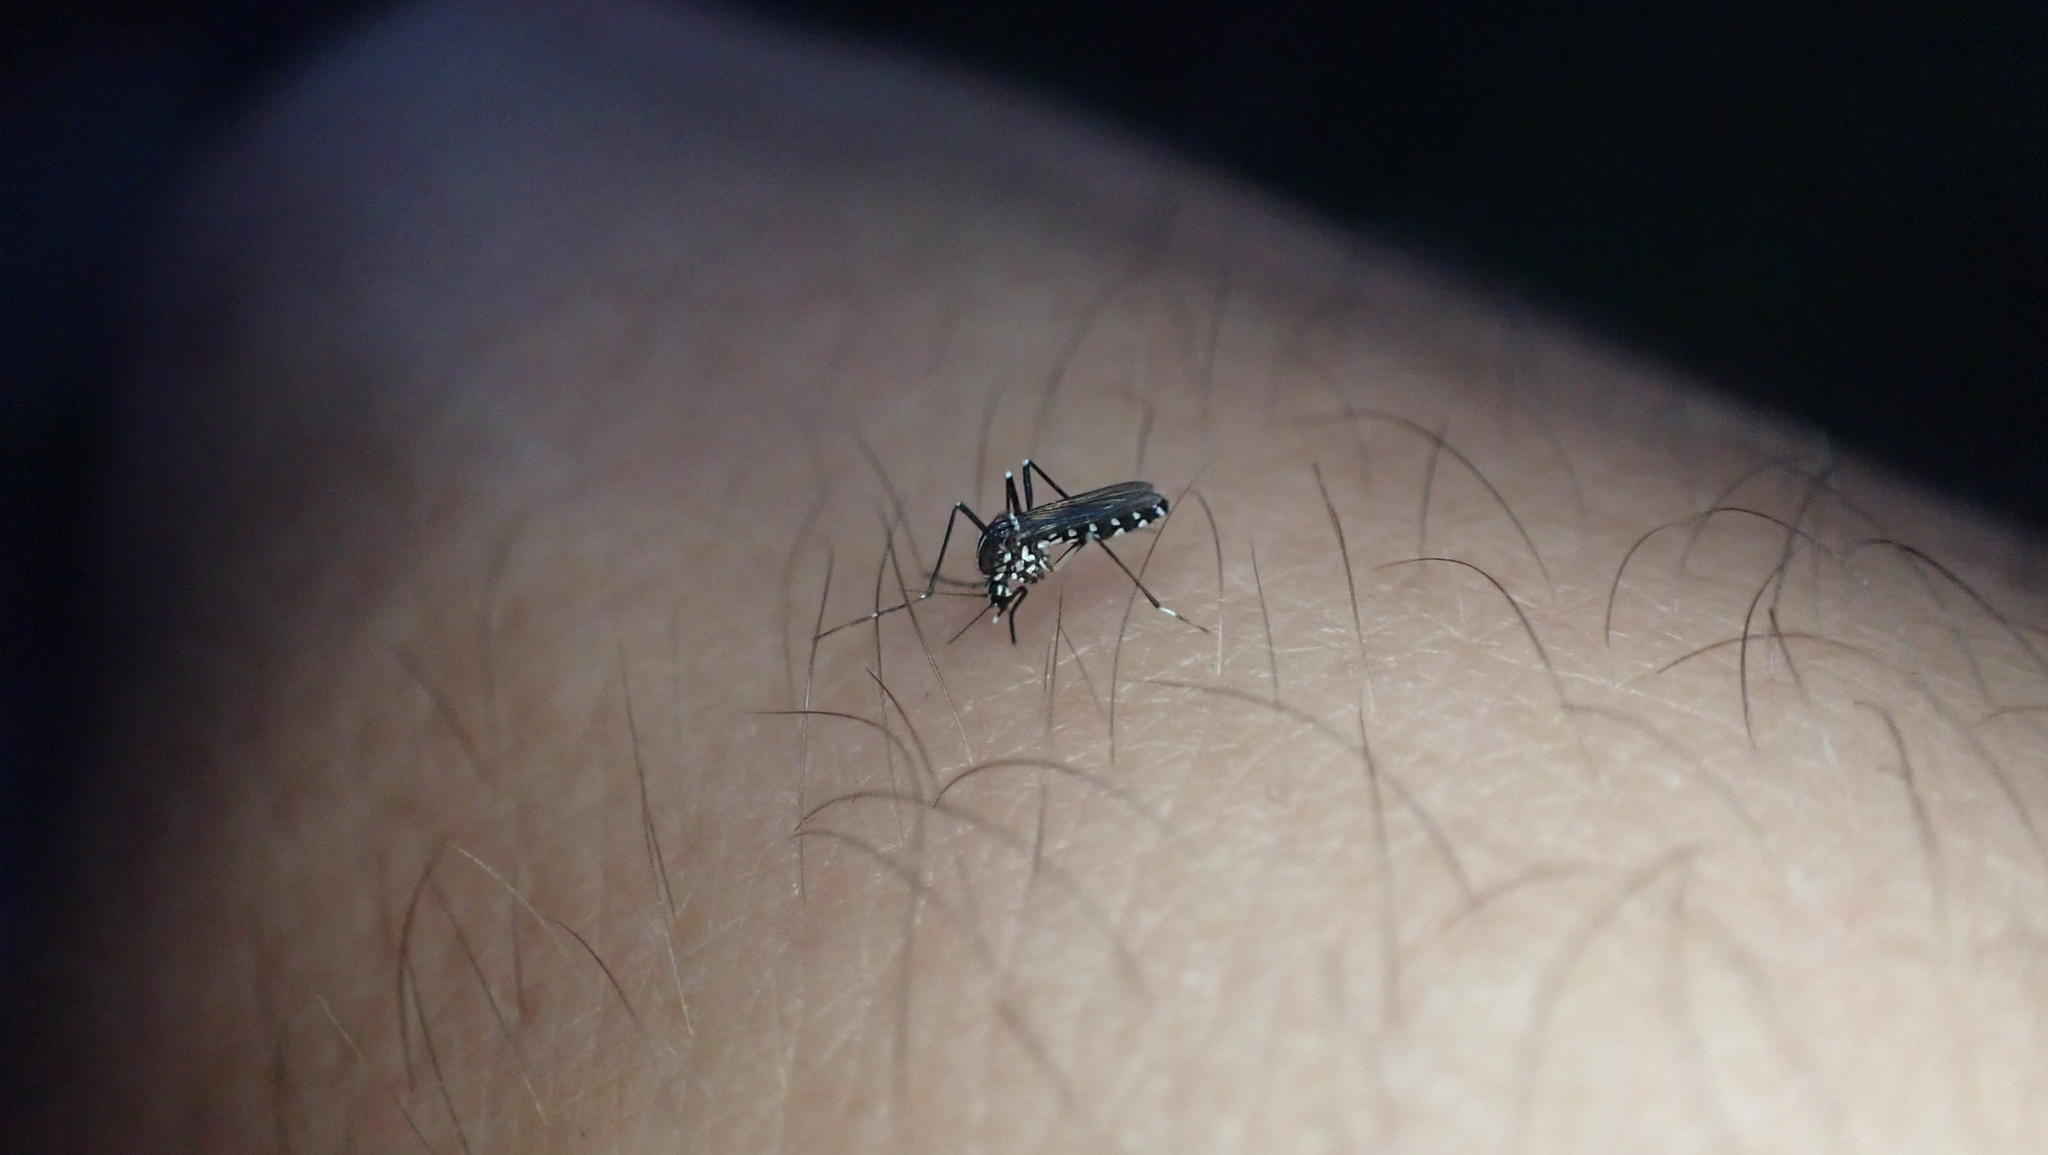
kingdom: Animalia
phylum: Arthropoda
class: Insecta
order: Diptera
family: Culicidae
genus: Aedes
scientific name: Aedes albopictus
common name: Tiger mosquito
